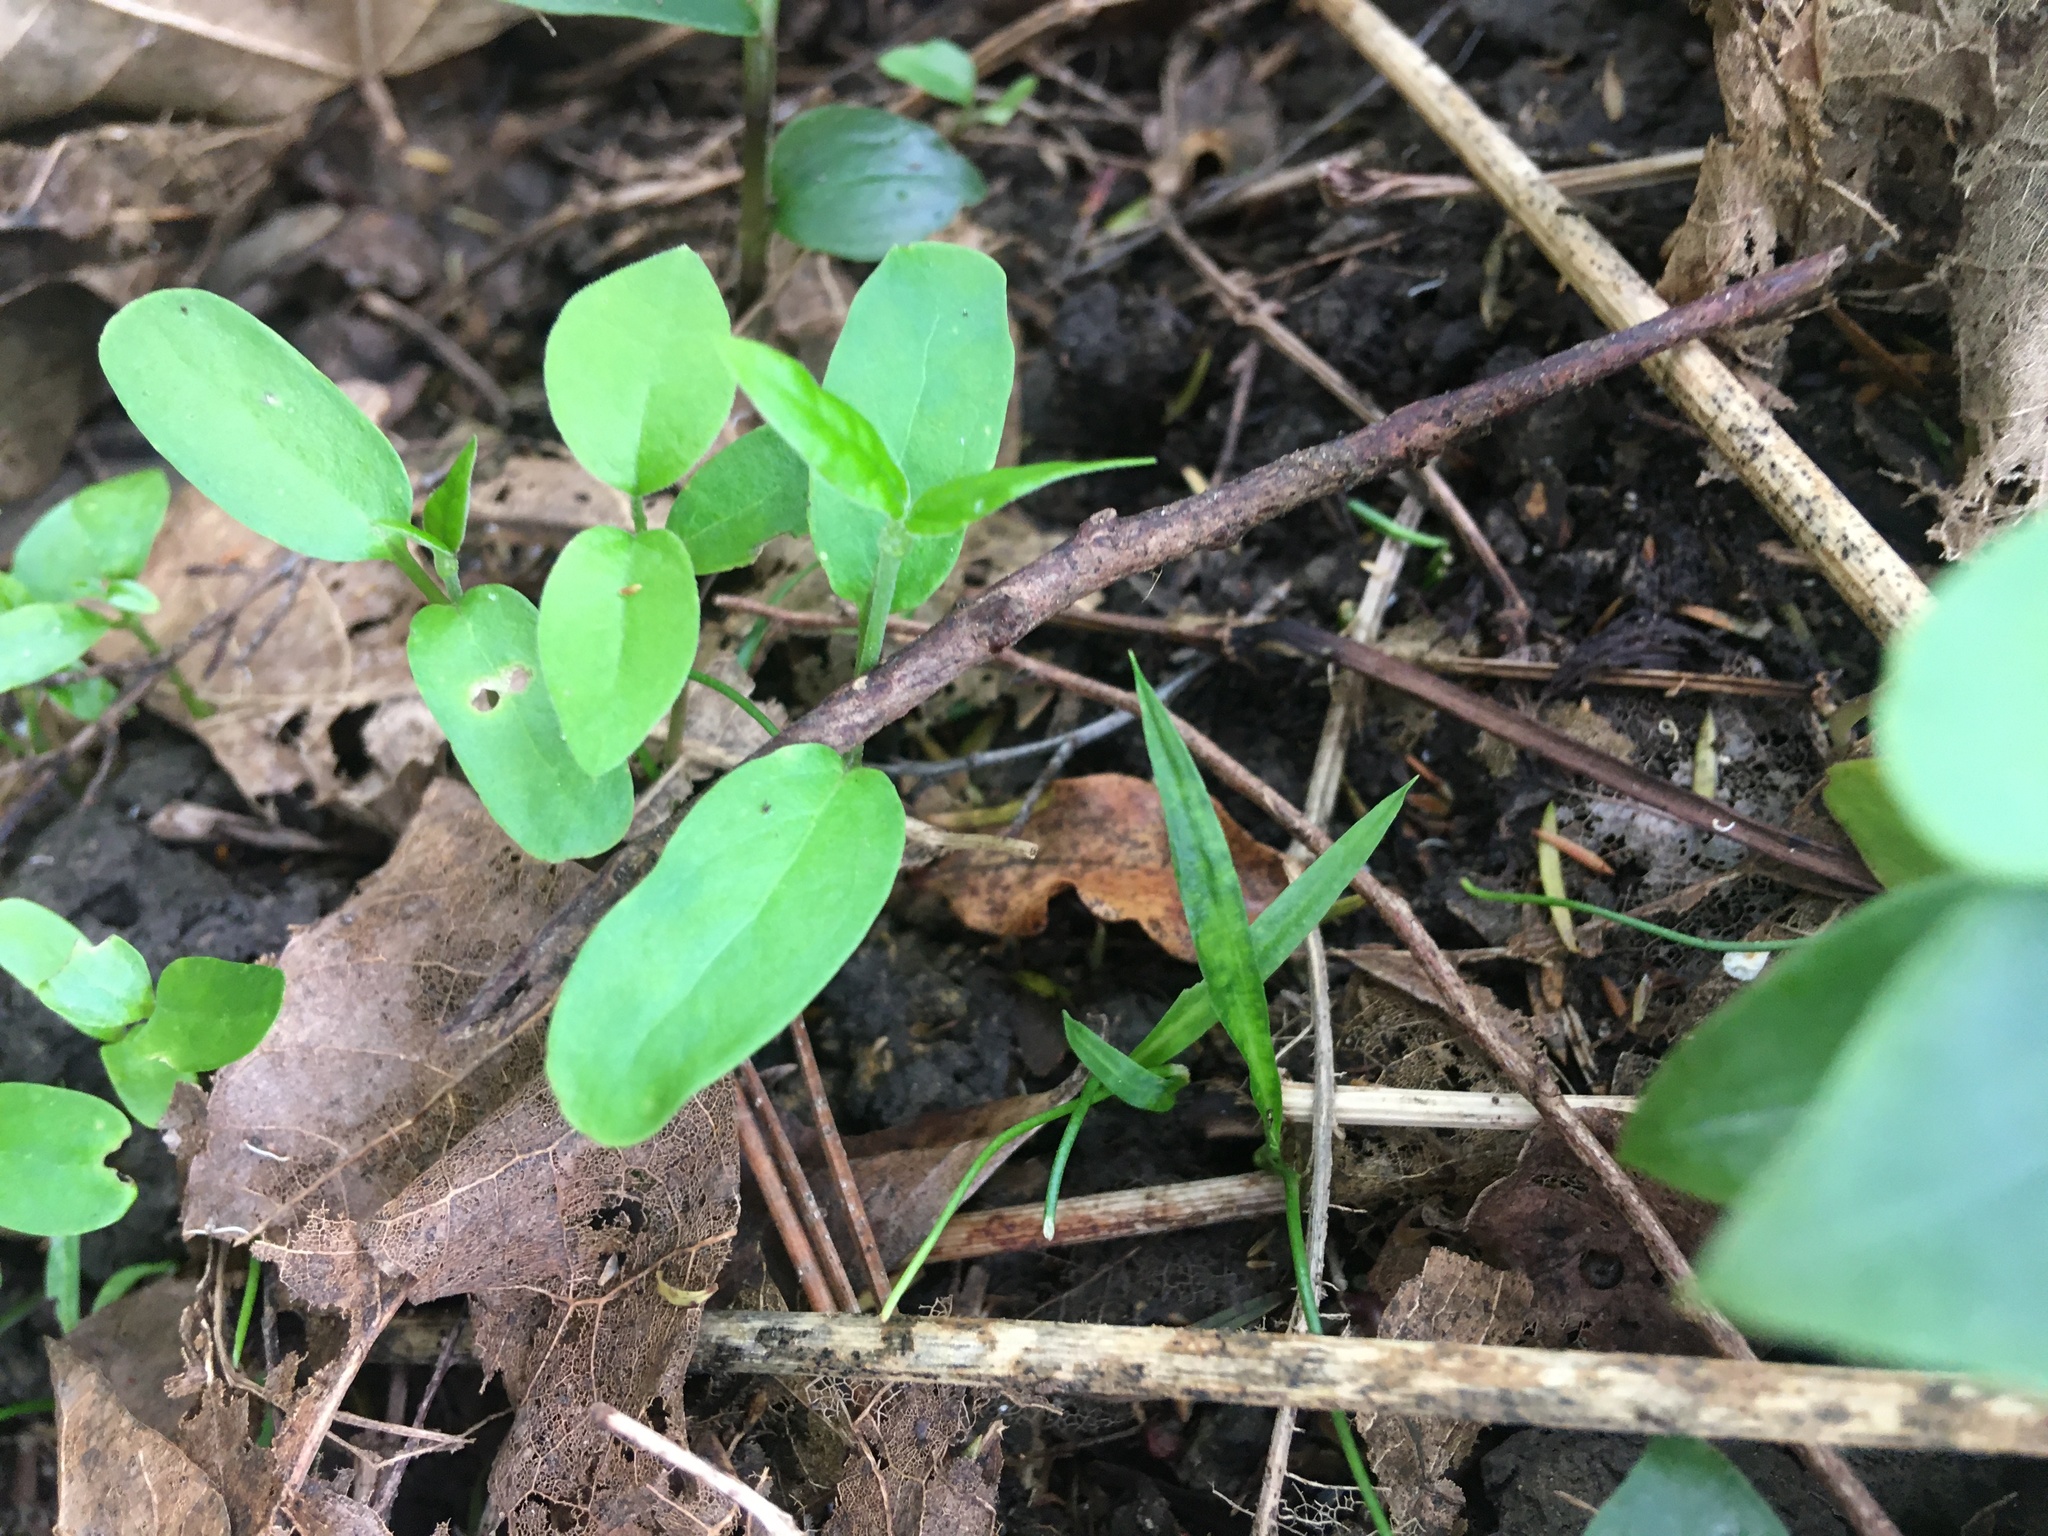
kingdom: Plantae
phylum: Tracheophyta
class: Magnoliopsida
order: Gentianales
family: Apocynaceae
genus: Araujia
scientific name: Araujia sericifera
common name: White bladderflower
